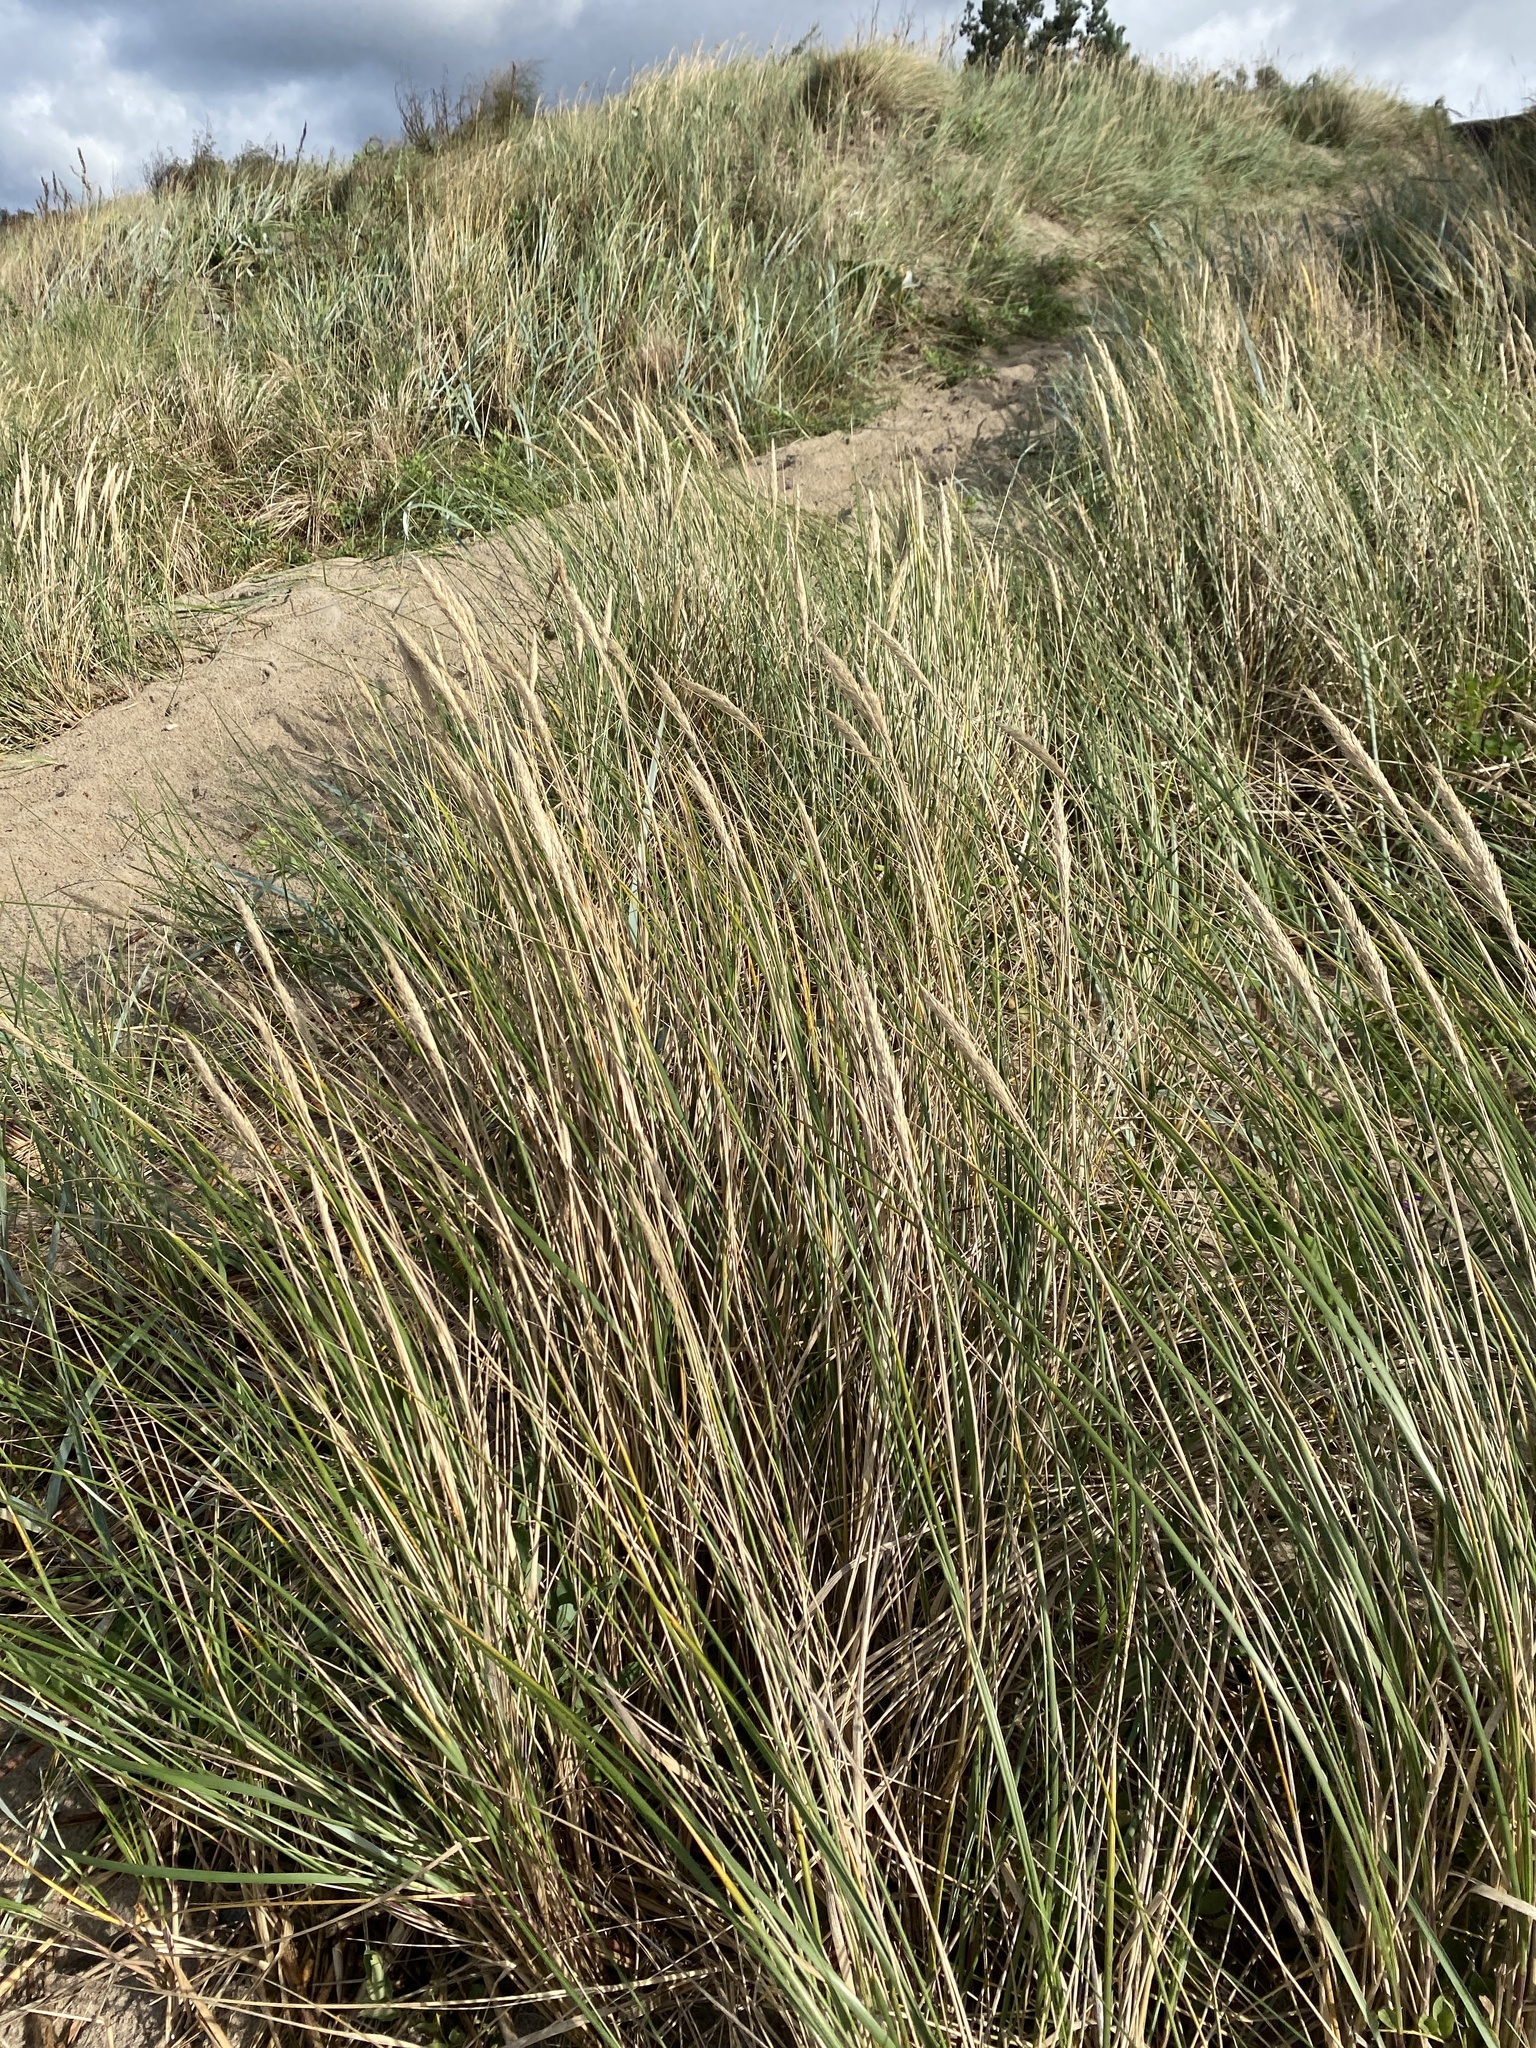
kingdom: Plantae
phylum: Tracheophyta
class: Liliopsida
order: Poales
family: Poaceae
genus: Calamagrostis
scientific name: Calamagrostis arenaria
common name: European beachgrass
